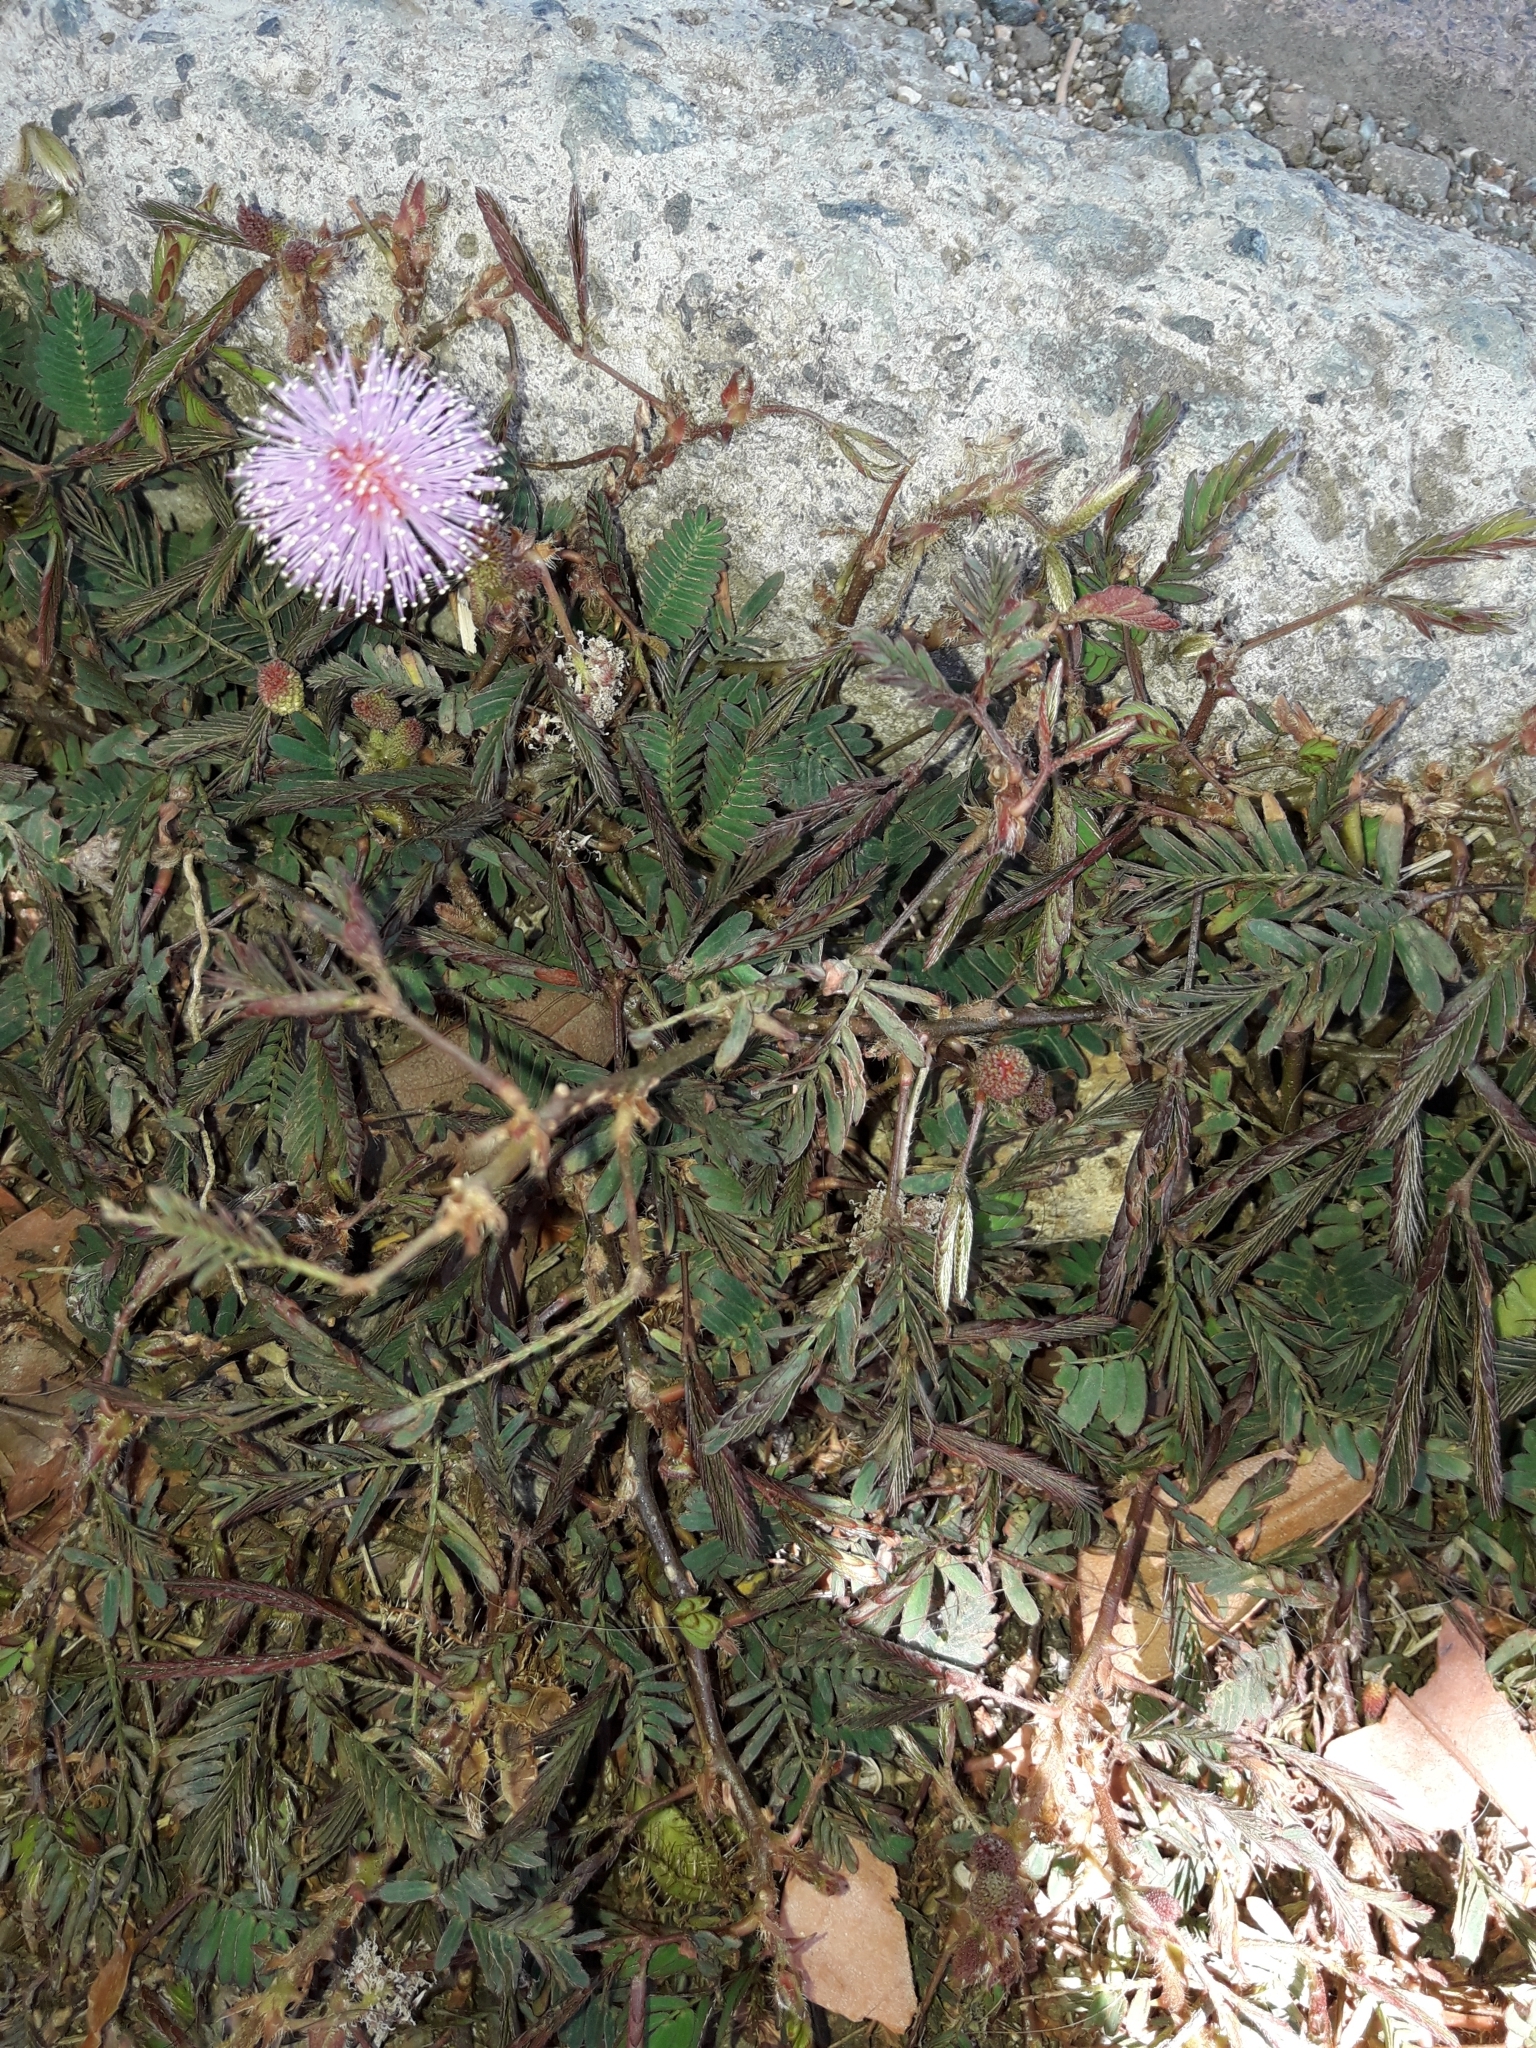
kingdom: Plantae
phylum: Tracheophyta
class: Magnoliopsida
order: Fabales
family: Fabaceae
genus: Mimosa
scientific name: Mimosa pudica
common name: Sensitive plant
